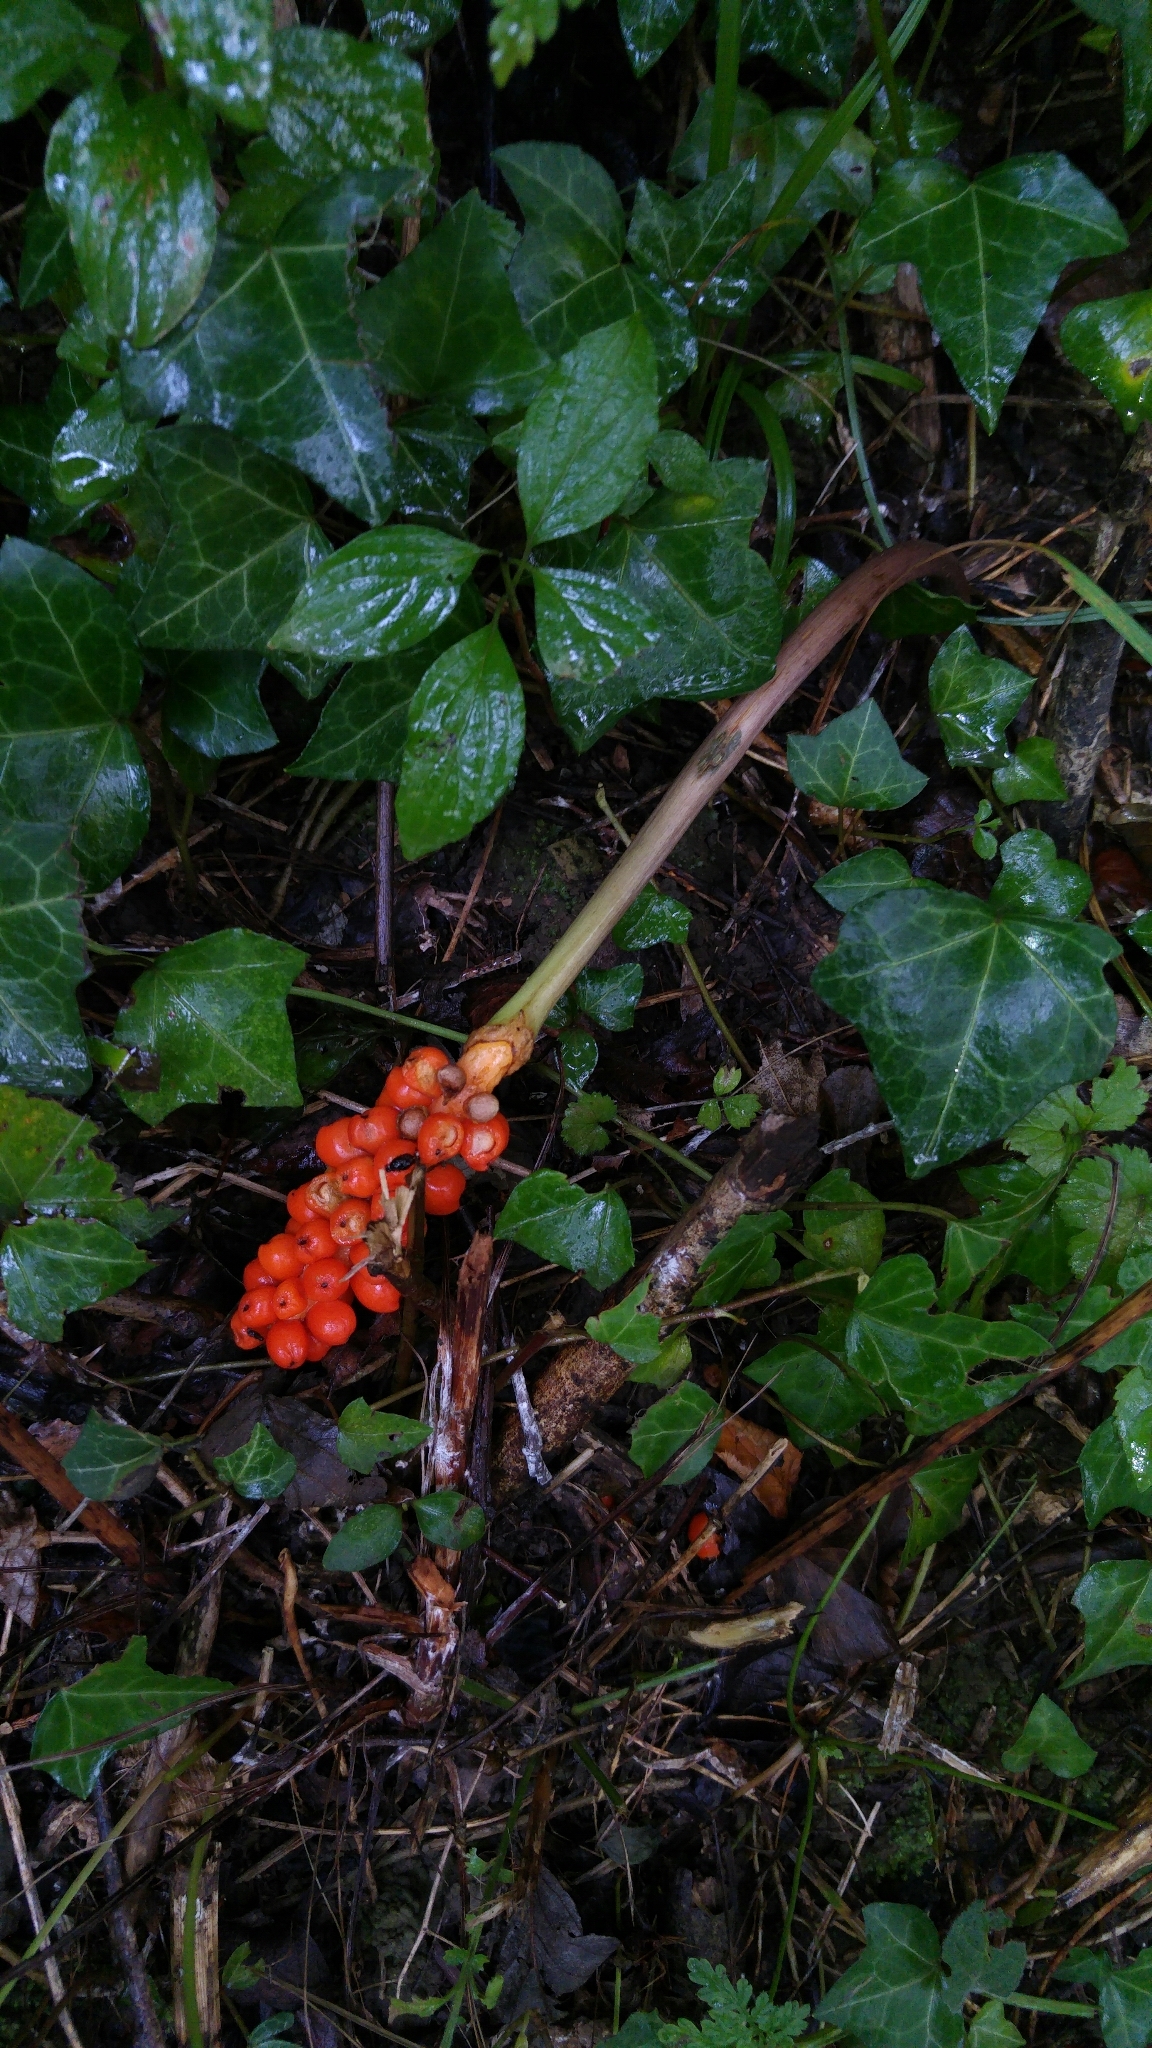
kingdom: Plantae
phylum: Tracheophyta
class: Magnoliopsida
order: Apiales
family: Araliaceae
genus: Hedera
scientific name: Hedera helix
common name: Ivy
